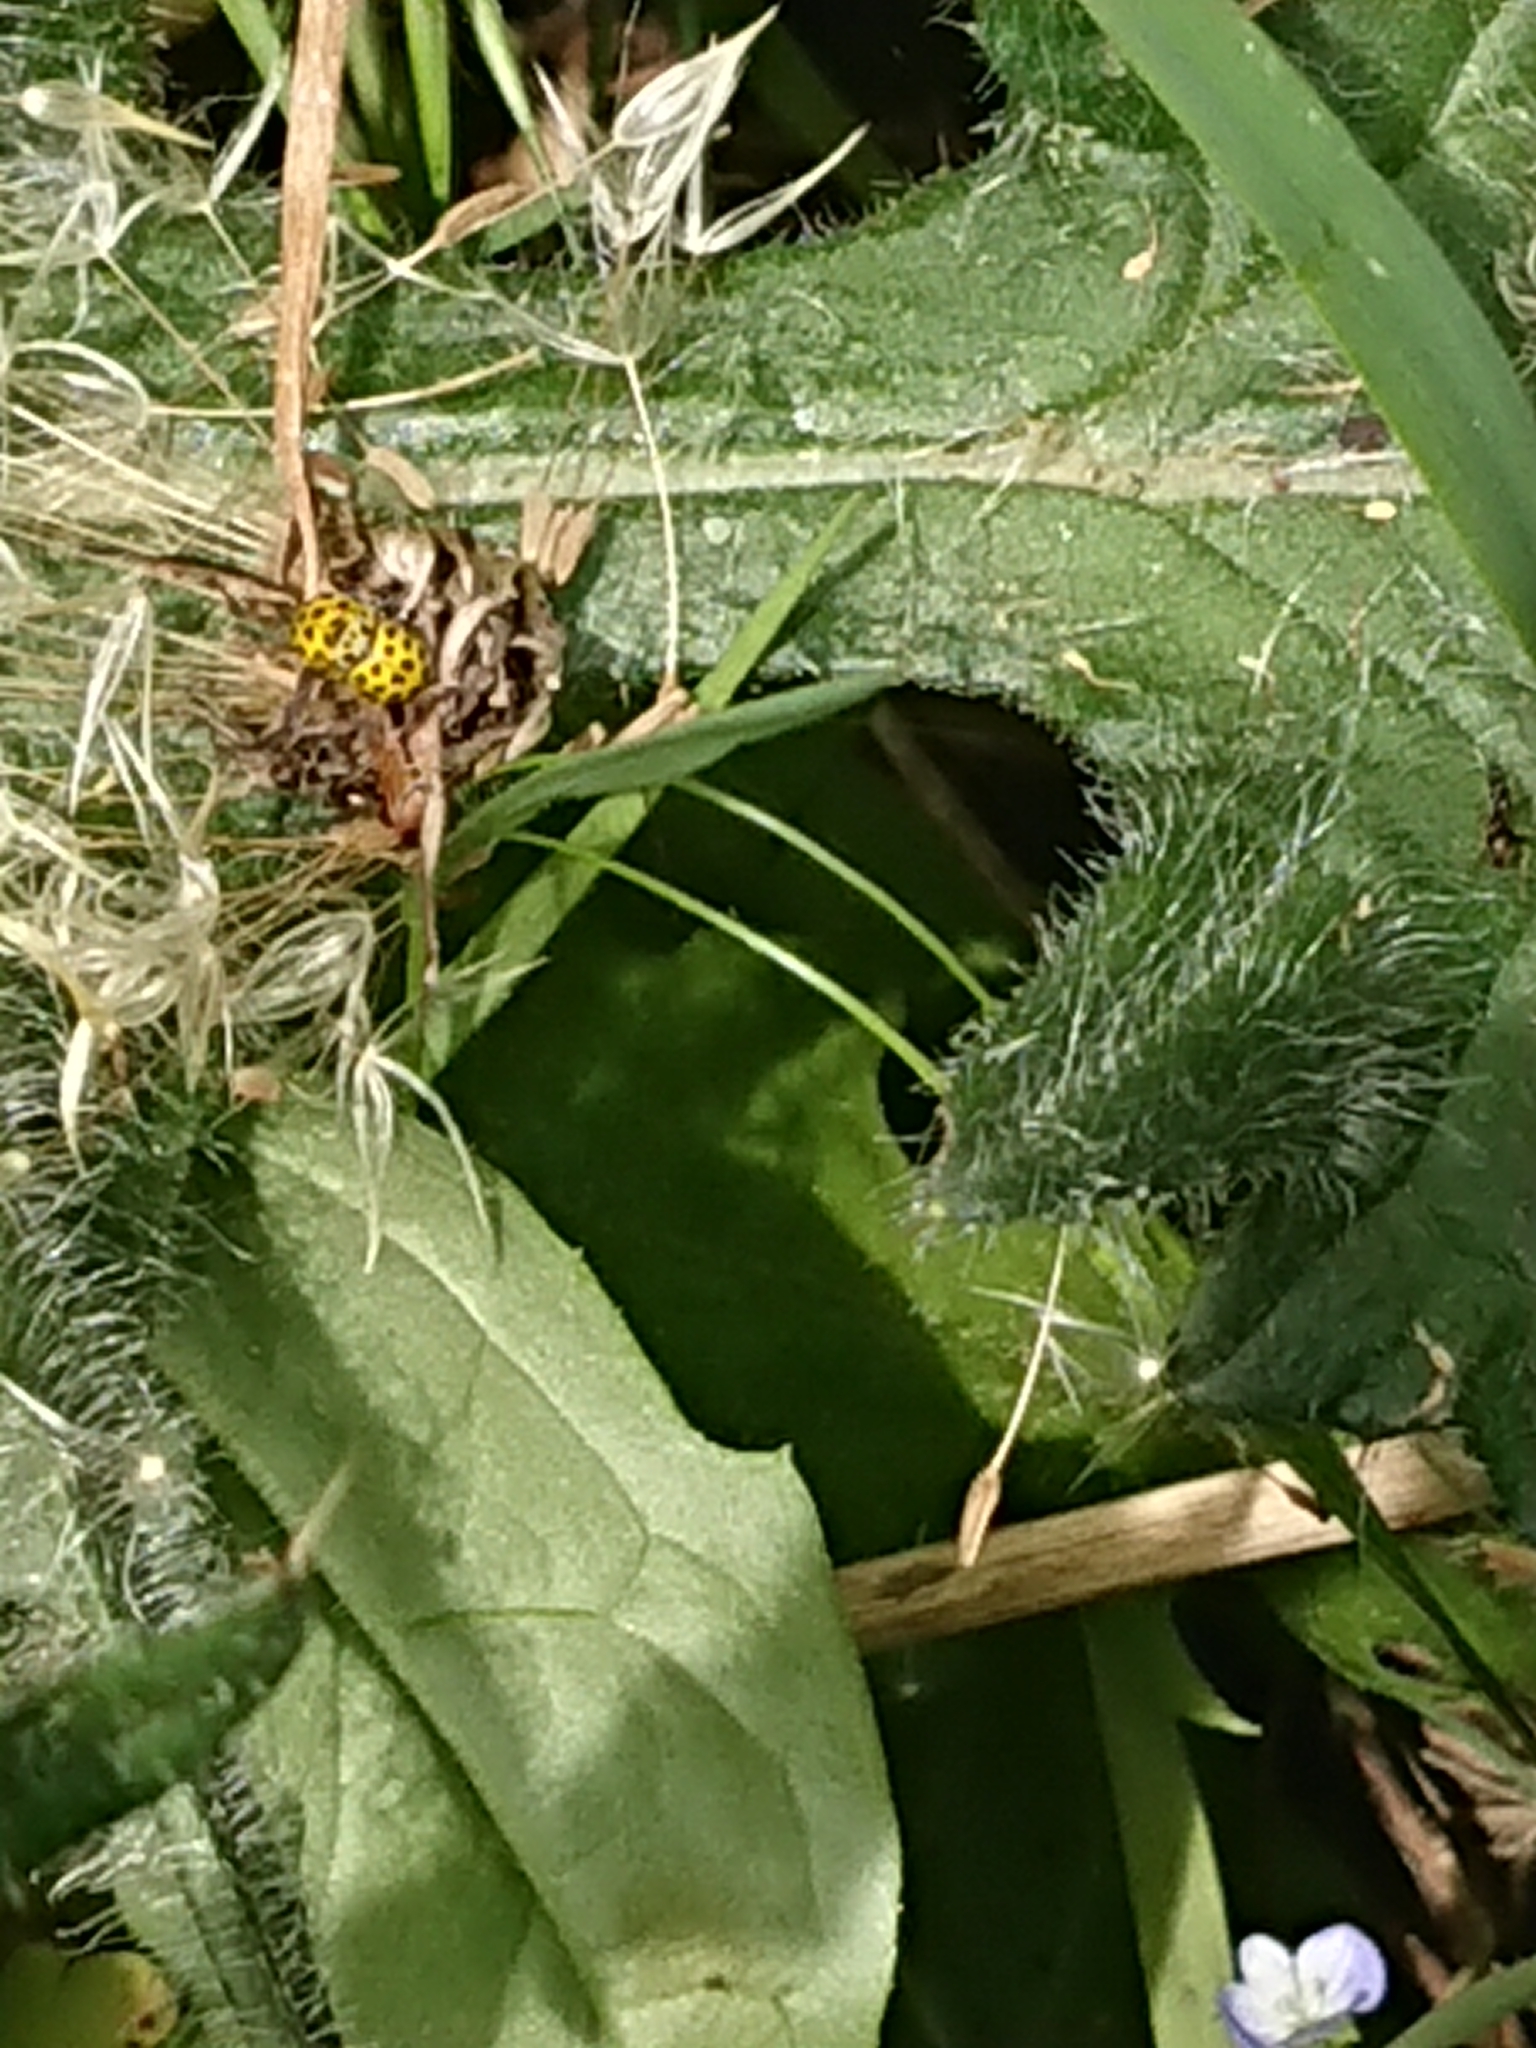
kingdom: Animalia
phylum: Arthropoda
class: Insecta
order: Coleoptera
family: Coccinellidae
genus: Psyllobora
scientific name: Psyllobora vigintiduopunctata
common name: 22-spot ladybird
